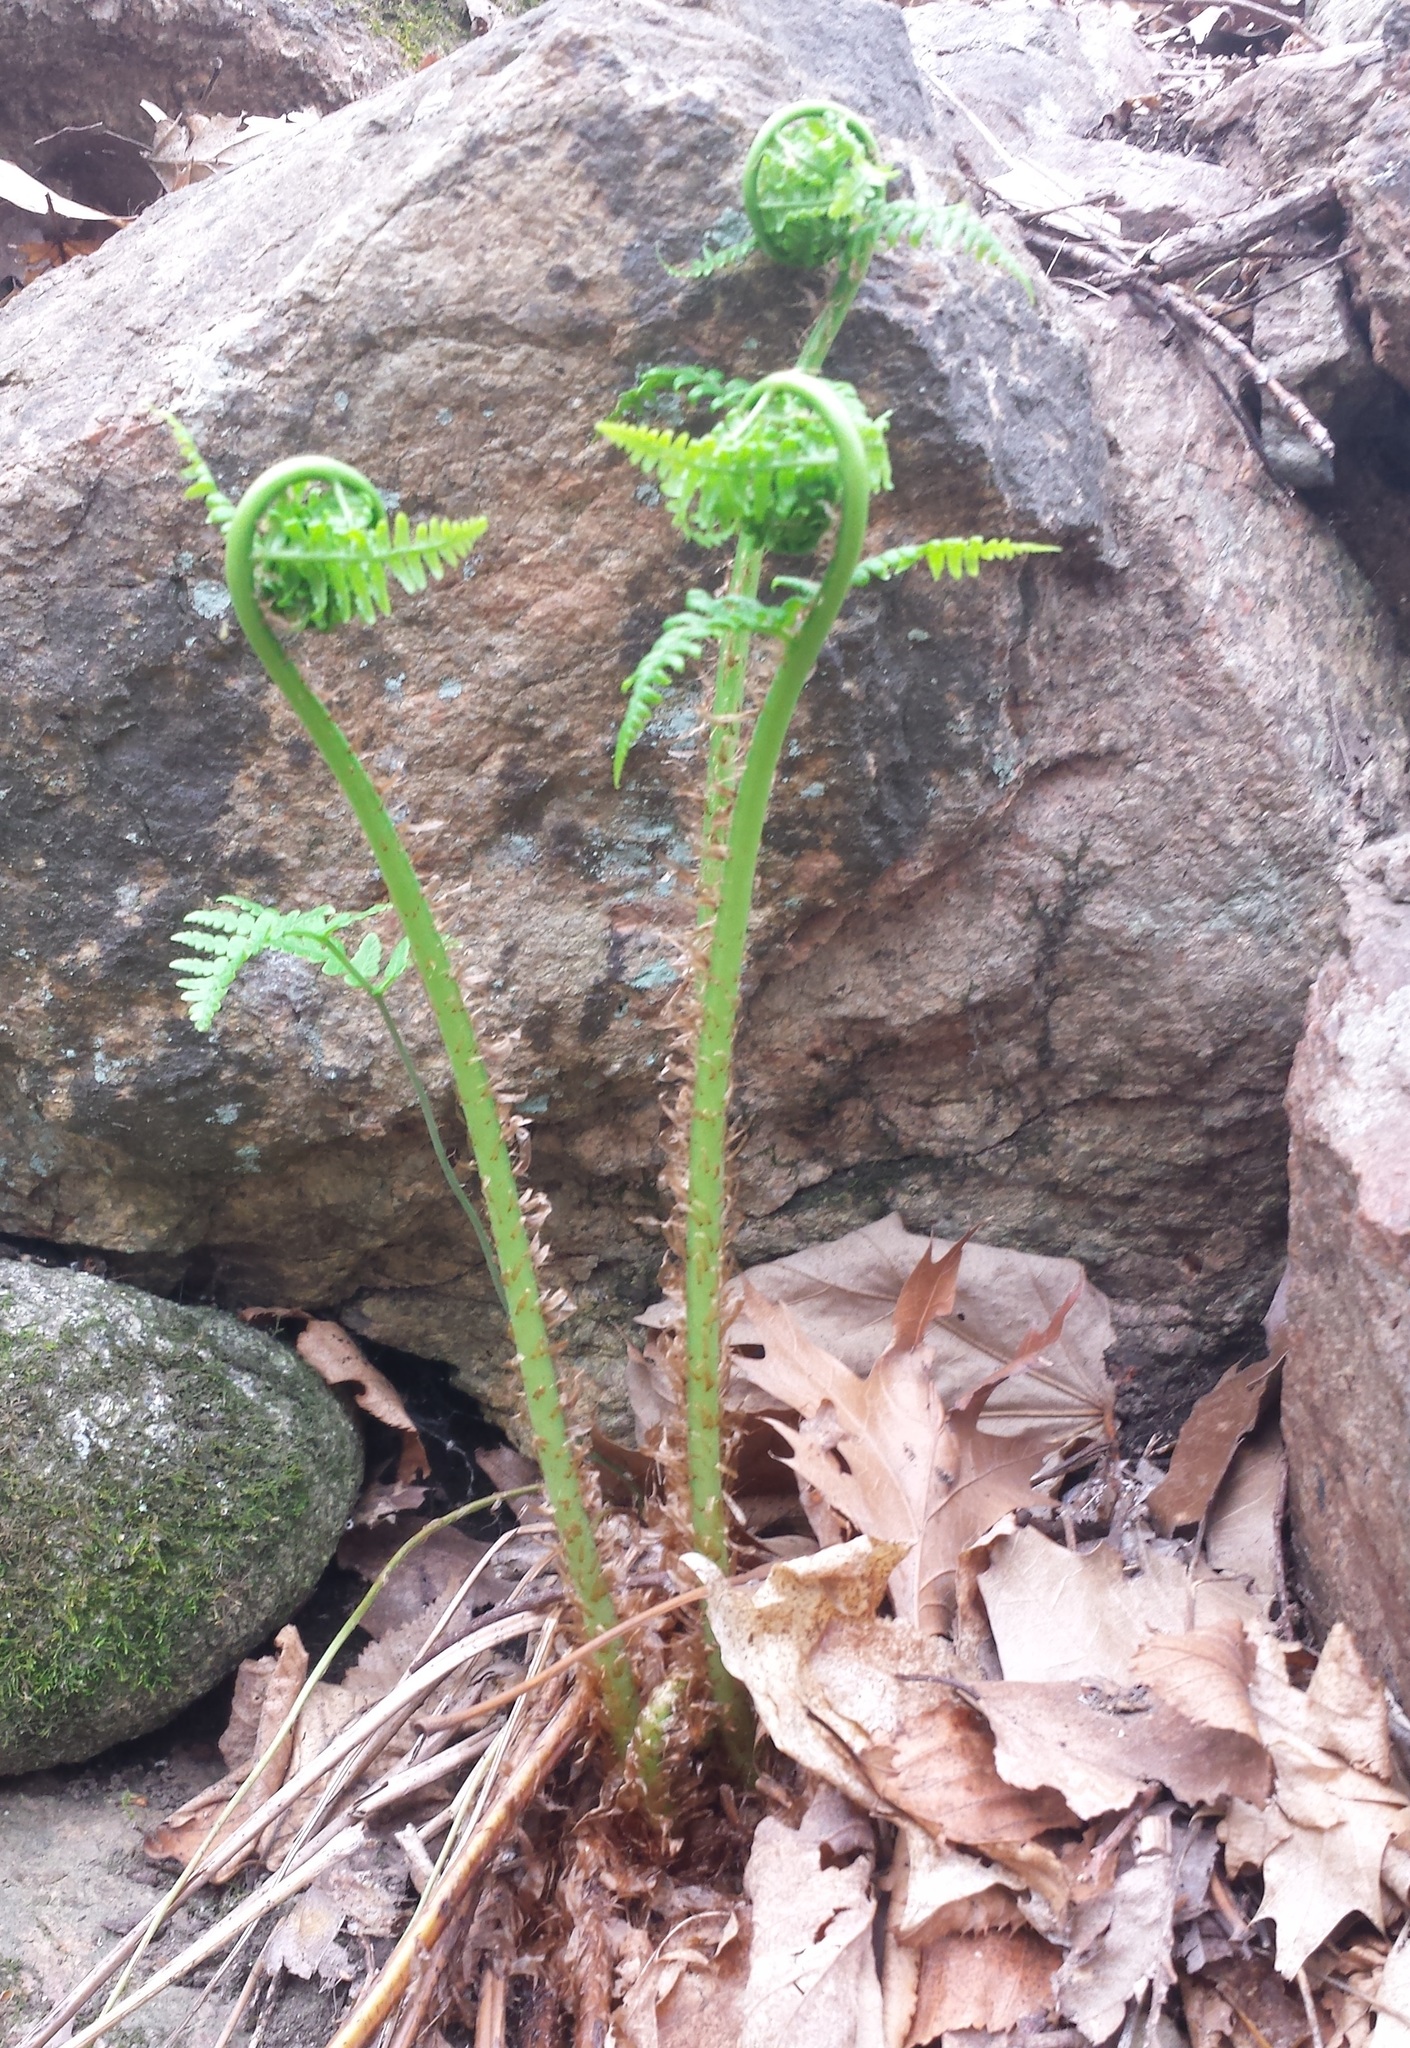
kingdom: Plantae
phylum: Tracheophyta
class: Polypodiopsida
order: Polypodiales
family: Dryopteridaceae
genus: Dryopteris
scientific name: Dryopteris marginalis
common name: Marginal wood fern
